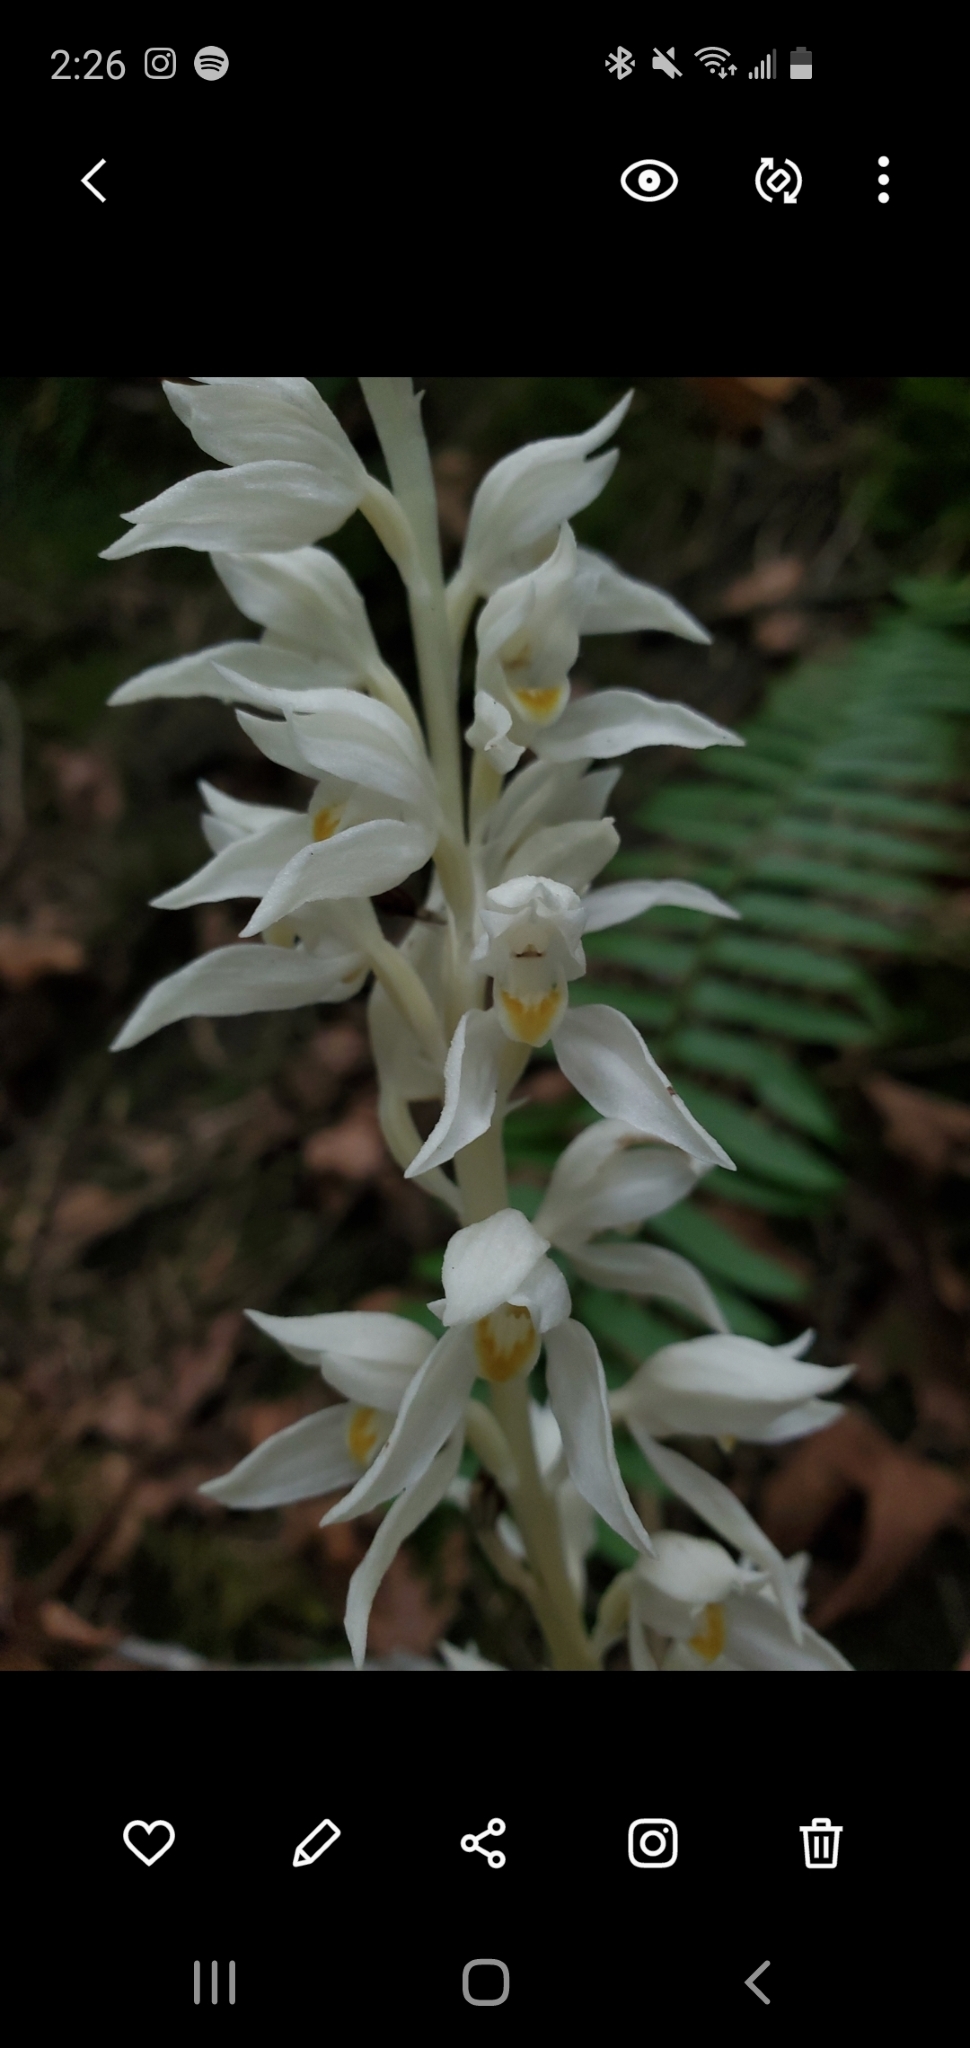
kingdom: Plantae
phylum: Tracheophyta
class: Liliopsida
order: Asparagales
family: Orchidaceae
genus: Cephalanthera
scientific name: Cephalanthera austiniae
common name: Phantom orchid
